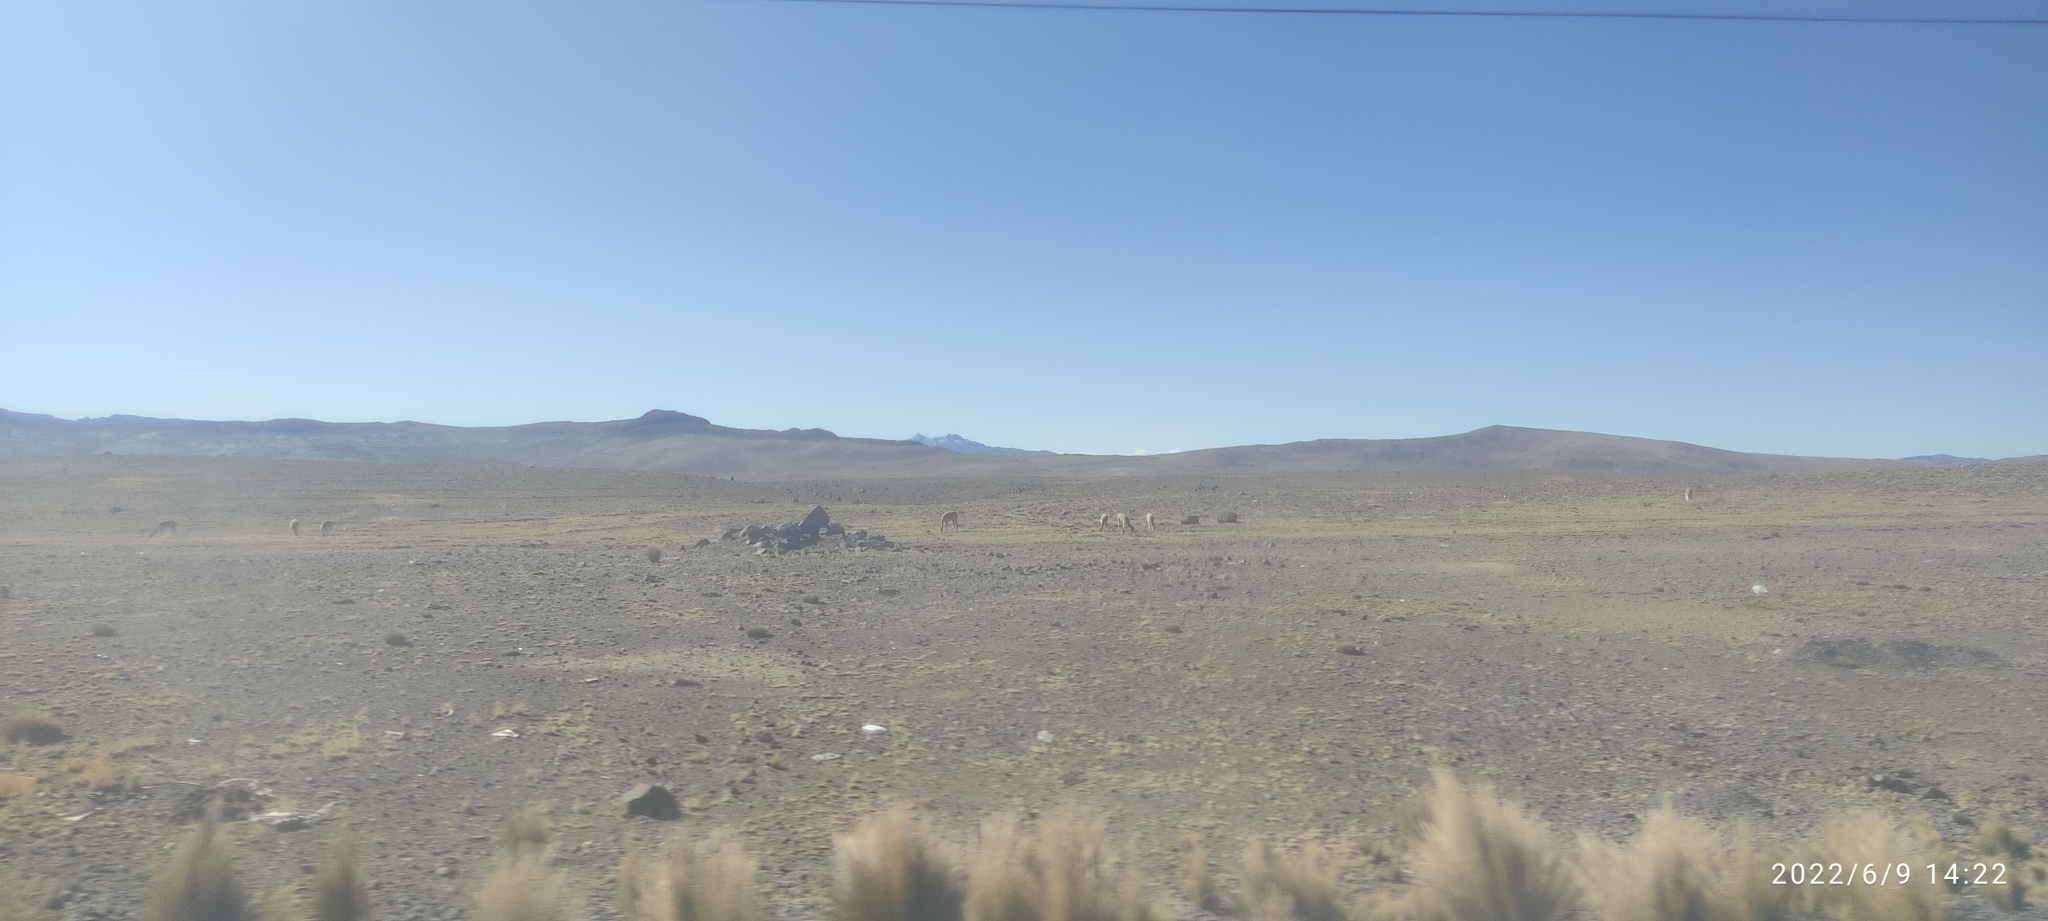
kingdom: Animalia
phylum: Chordata
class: Mammalia
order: Artiodactyla
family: Camelidae
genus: Vicugna
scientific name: Vicugna vicugna
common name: Vicugna
